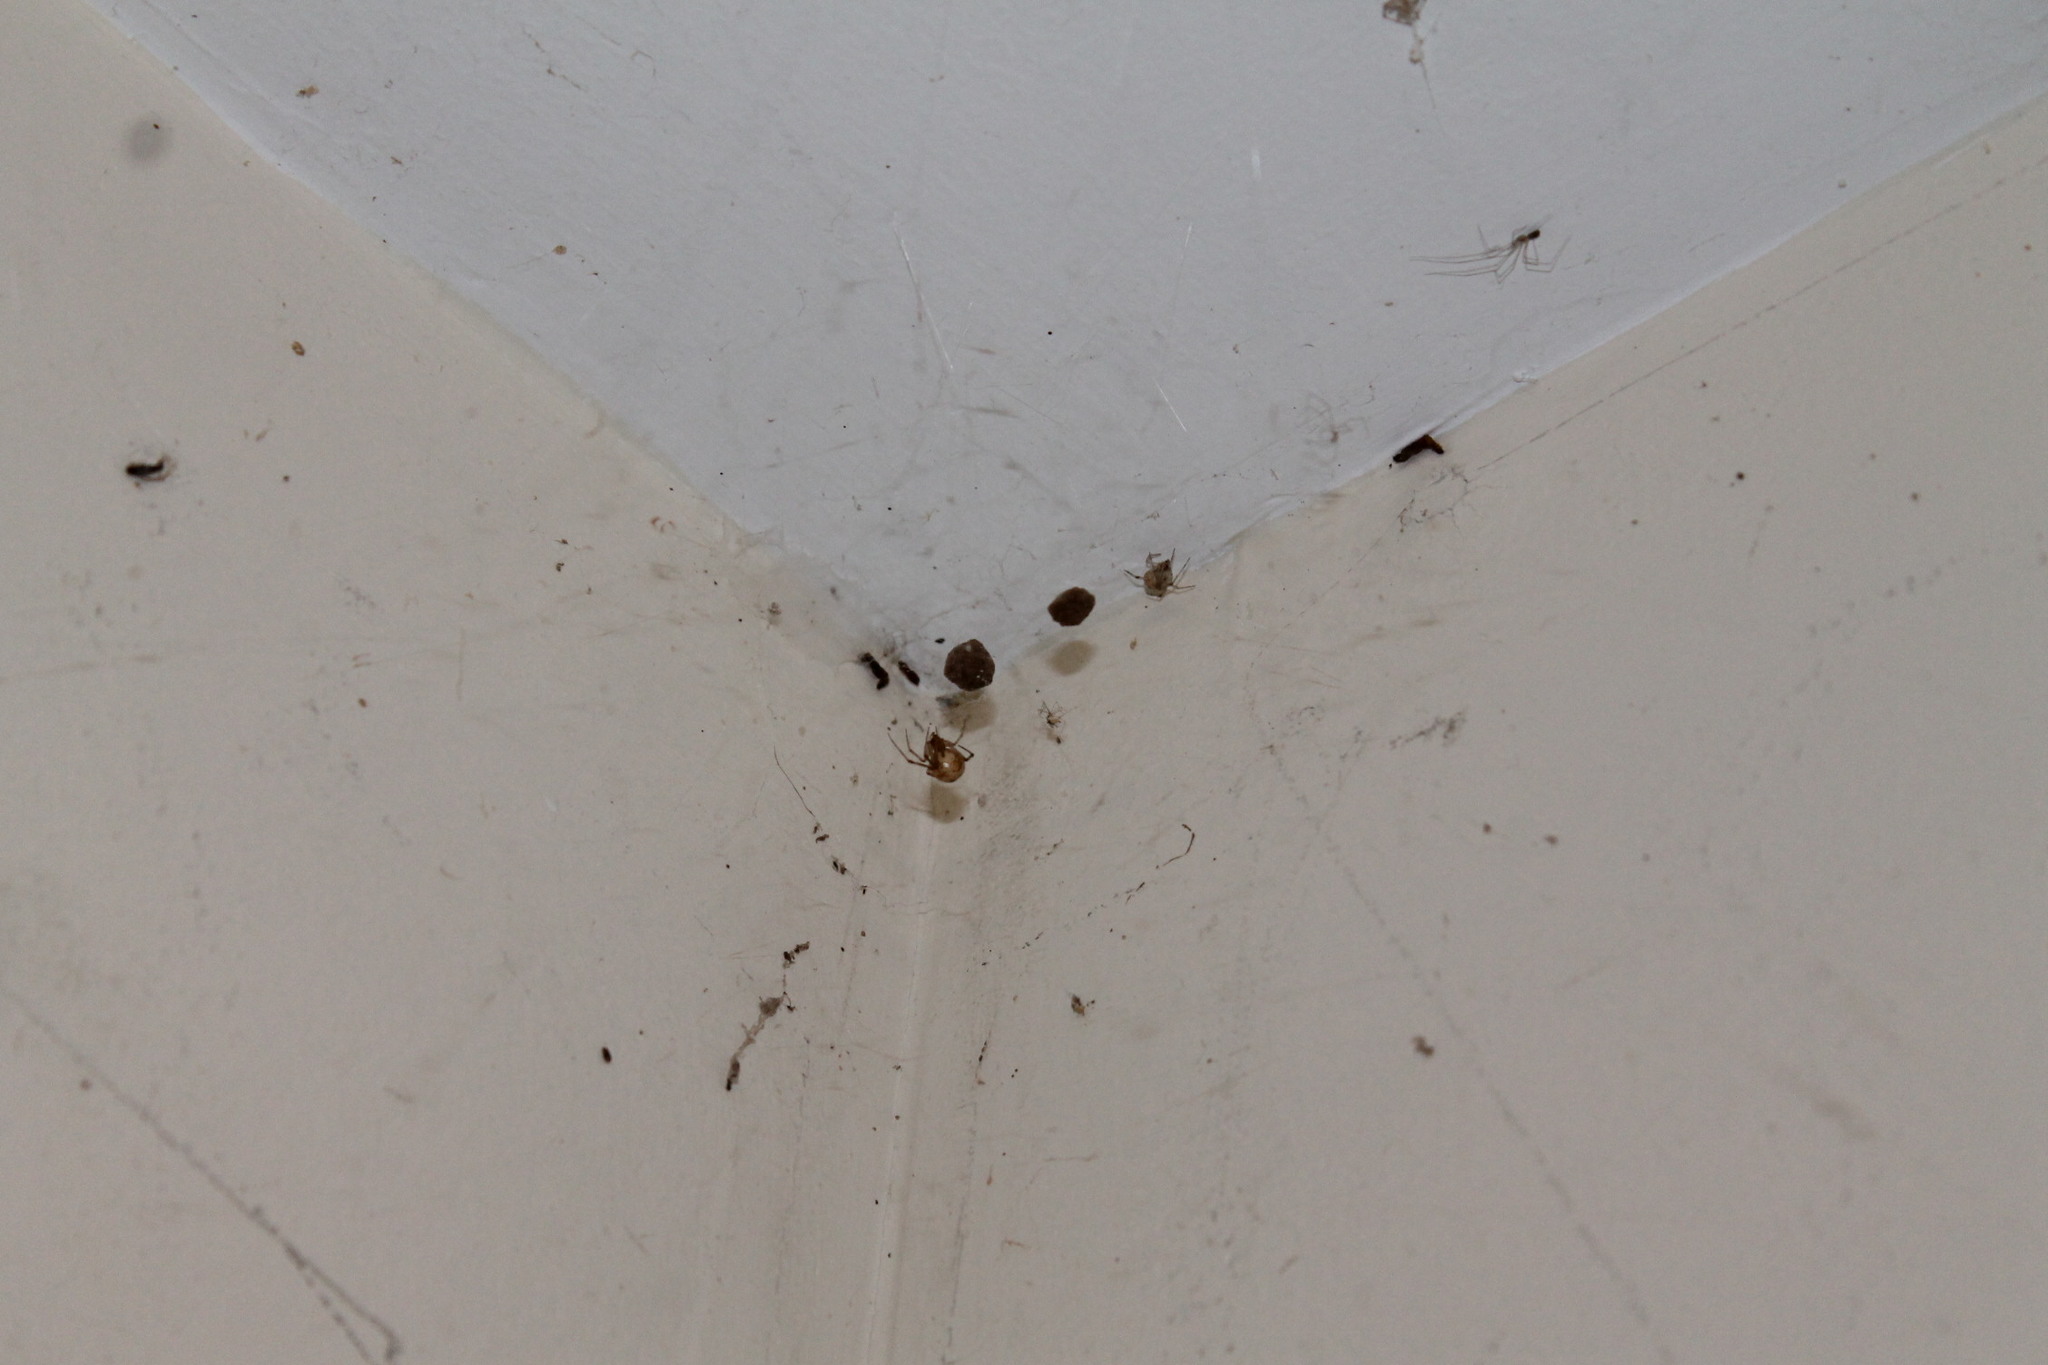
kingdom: Animalia
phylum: Arthropoda
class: Arachnida
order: Araneae
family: Theridiidae
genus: Parasteatoda
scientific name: Parasteatoda tepidariorum
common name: Common house spider
